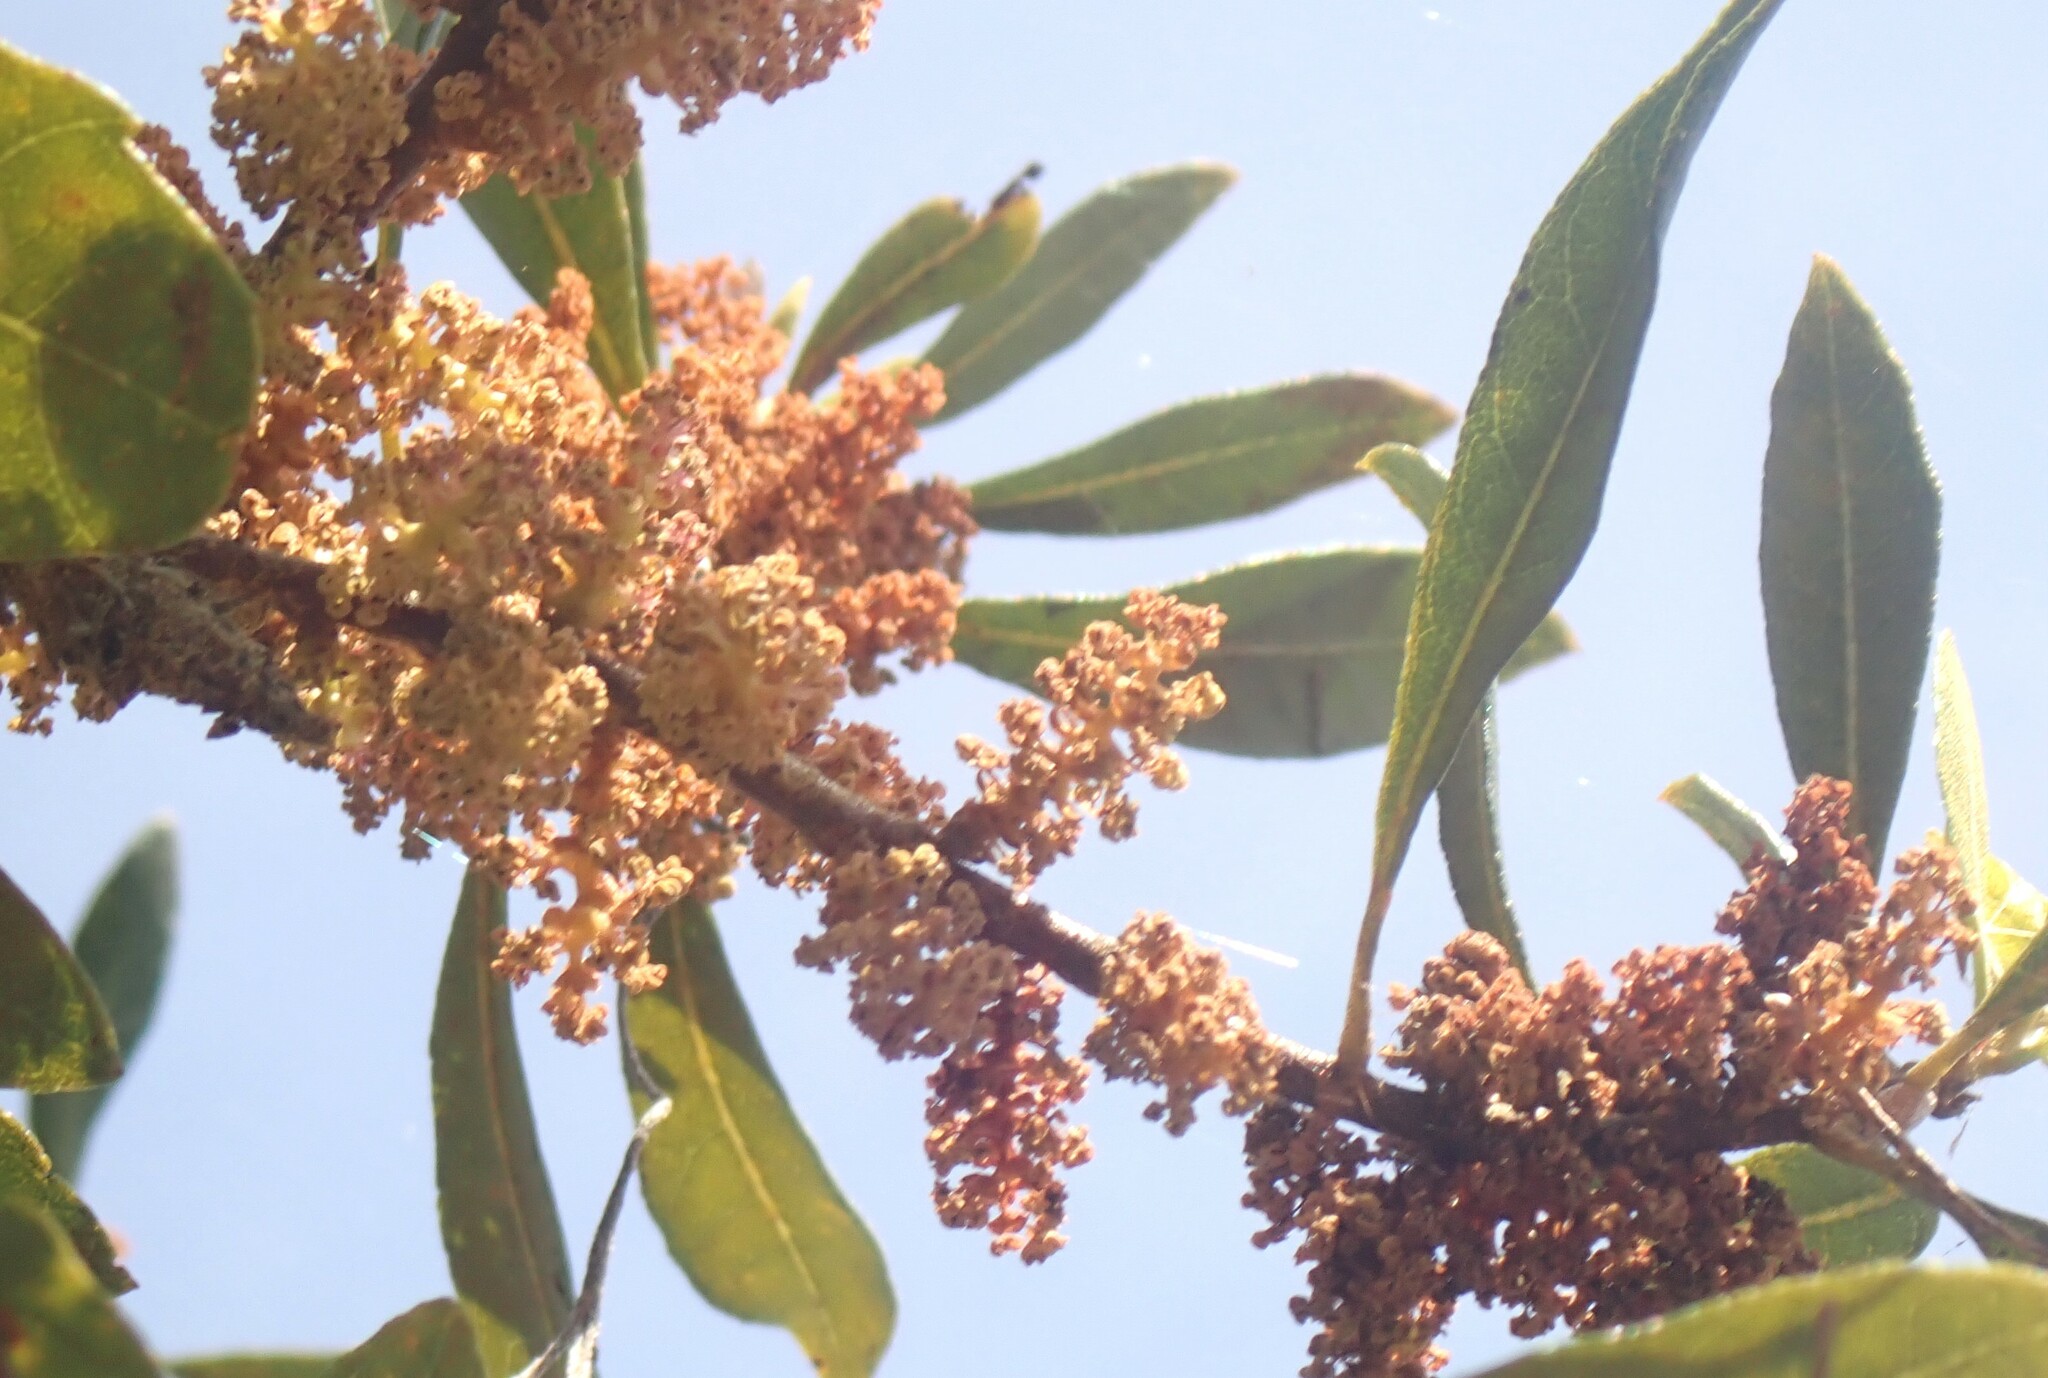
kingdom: Plantae
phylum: Tracheophyta
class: Magnoliopsida
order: Fagales
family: Myricaceae
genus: Morella
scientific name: Morella cerifera
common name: Wax myrtle
